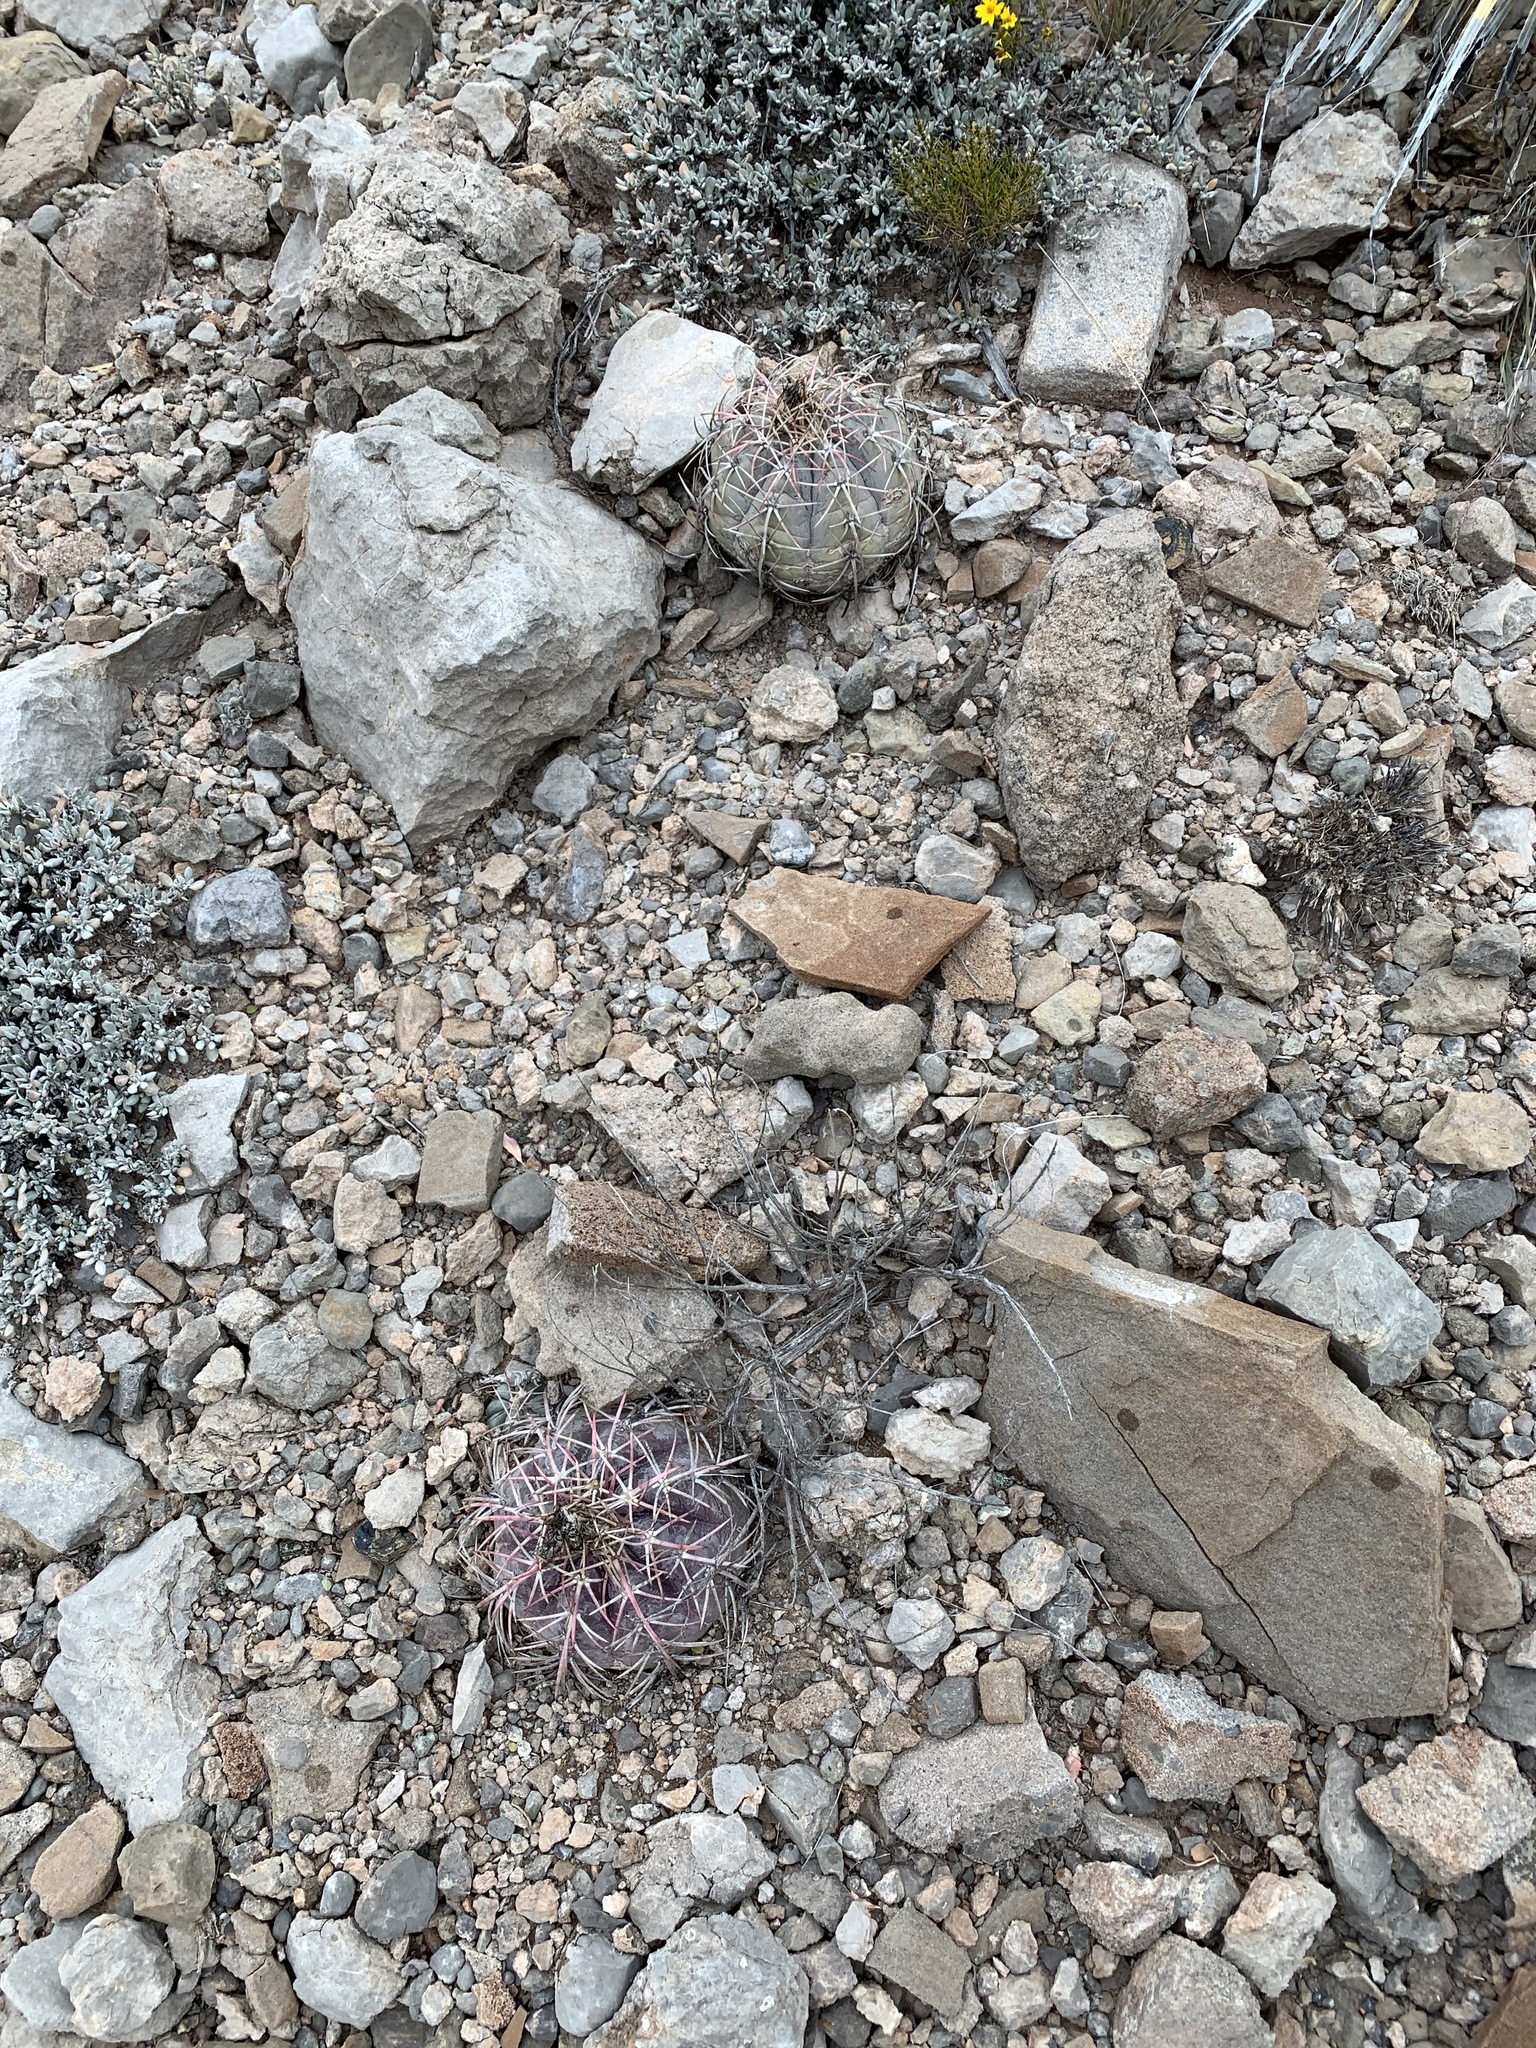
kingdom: Plantae
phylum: Tracheophyta
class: Magnoliopsida
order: Caryophyllales
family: Cactaceae
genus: Echinocactus
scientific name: Echinocactus horizonthalonius
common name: Devilshead
